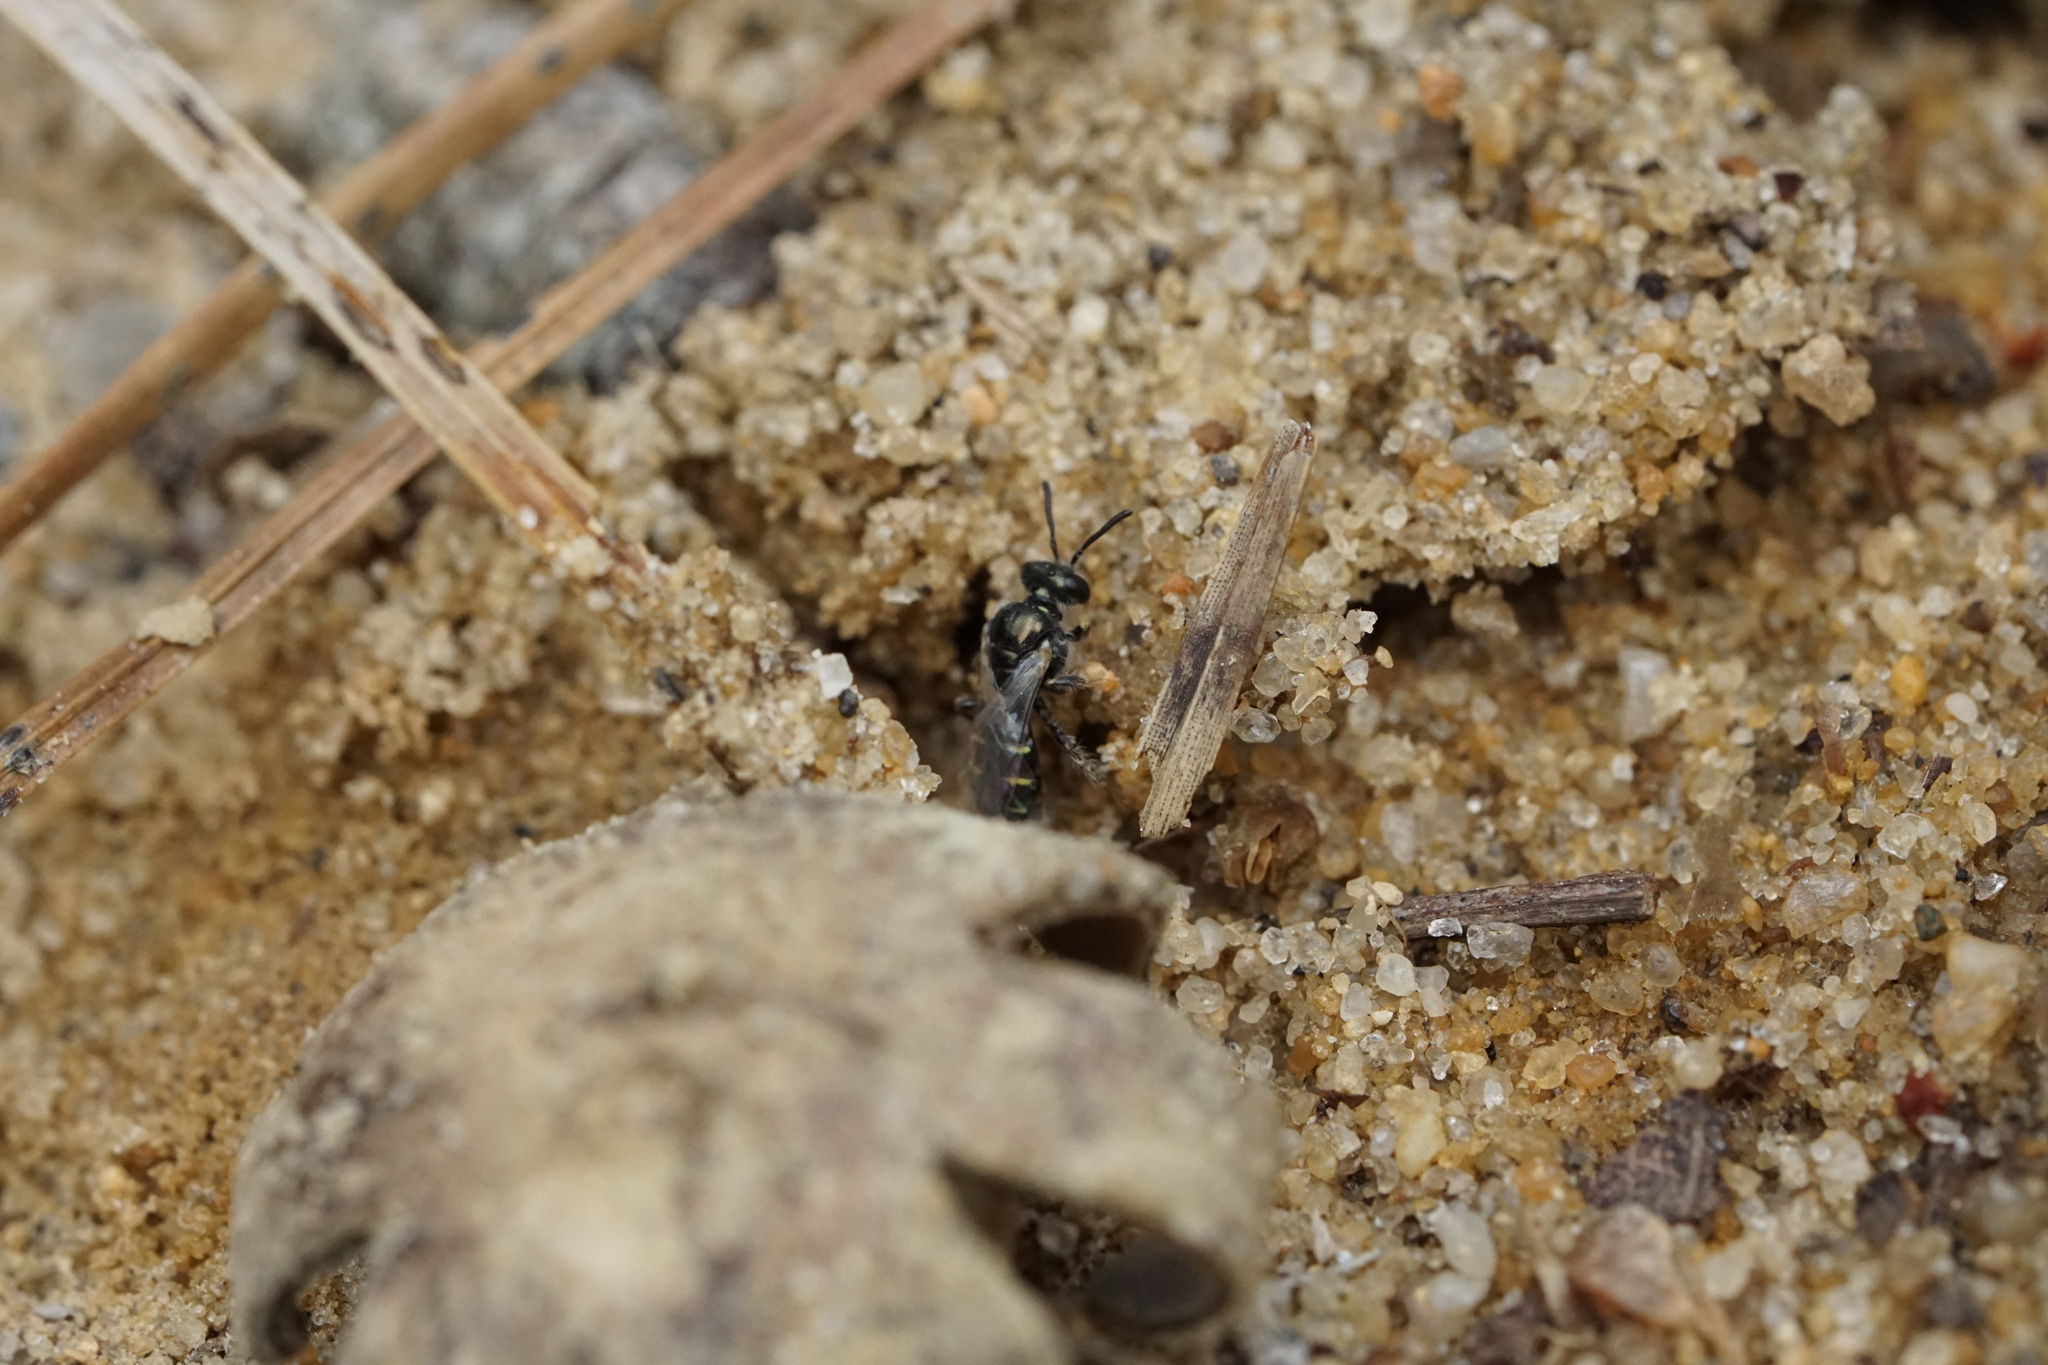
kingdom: Animalia
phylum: Arthropoda
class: Insecta
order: Hymenoptera
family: Andrenidae
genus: Perdita
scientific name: Perdita bradleyi
